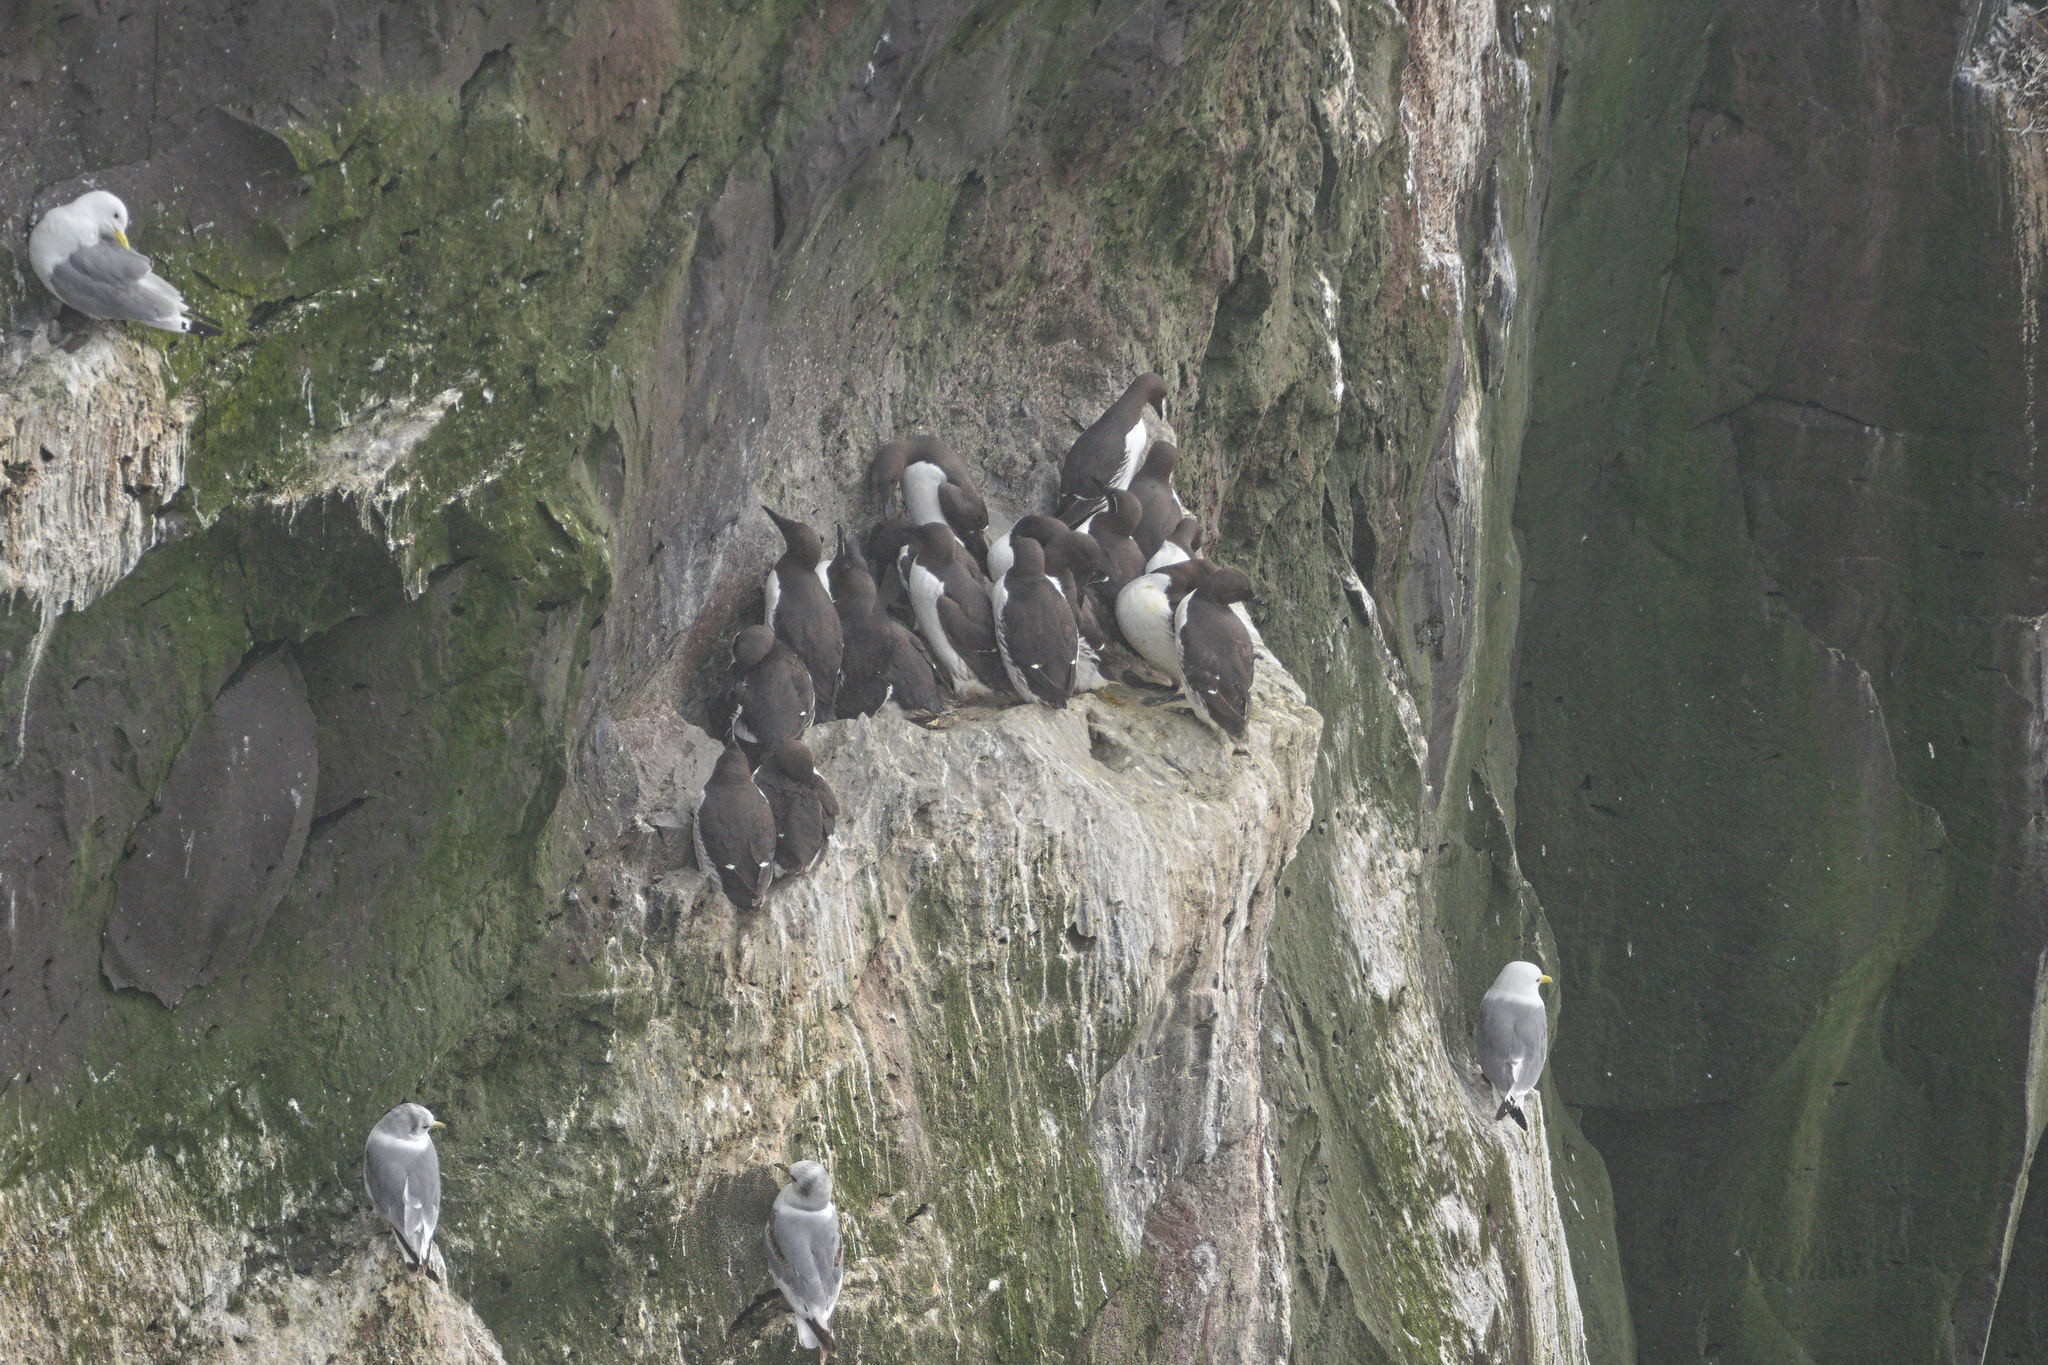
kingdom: Animalia
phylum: Chordata
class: Aves
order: Charadriiformes
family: Alcidae
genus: Uria
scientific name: Uria aalge
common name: Common murre
